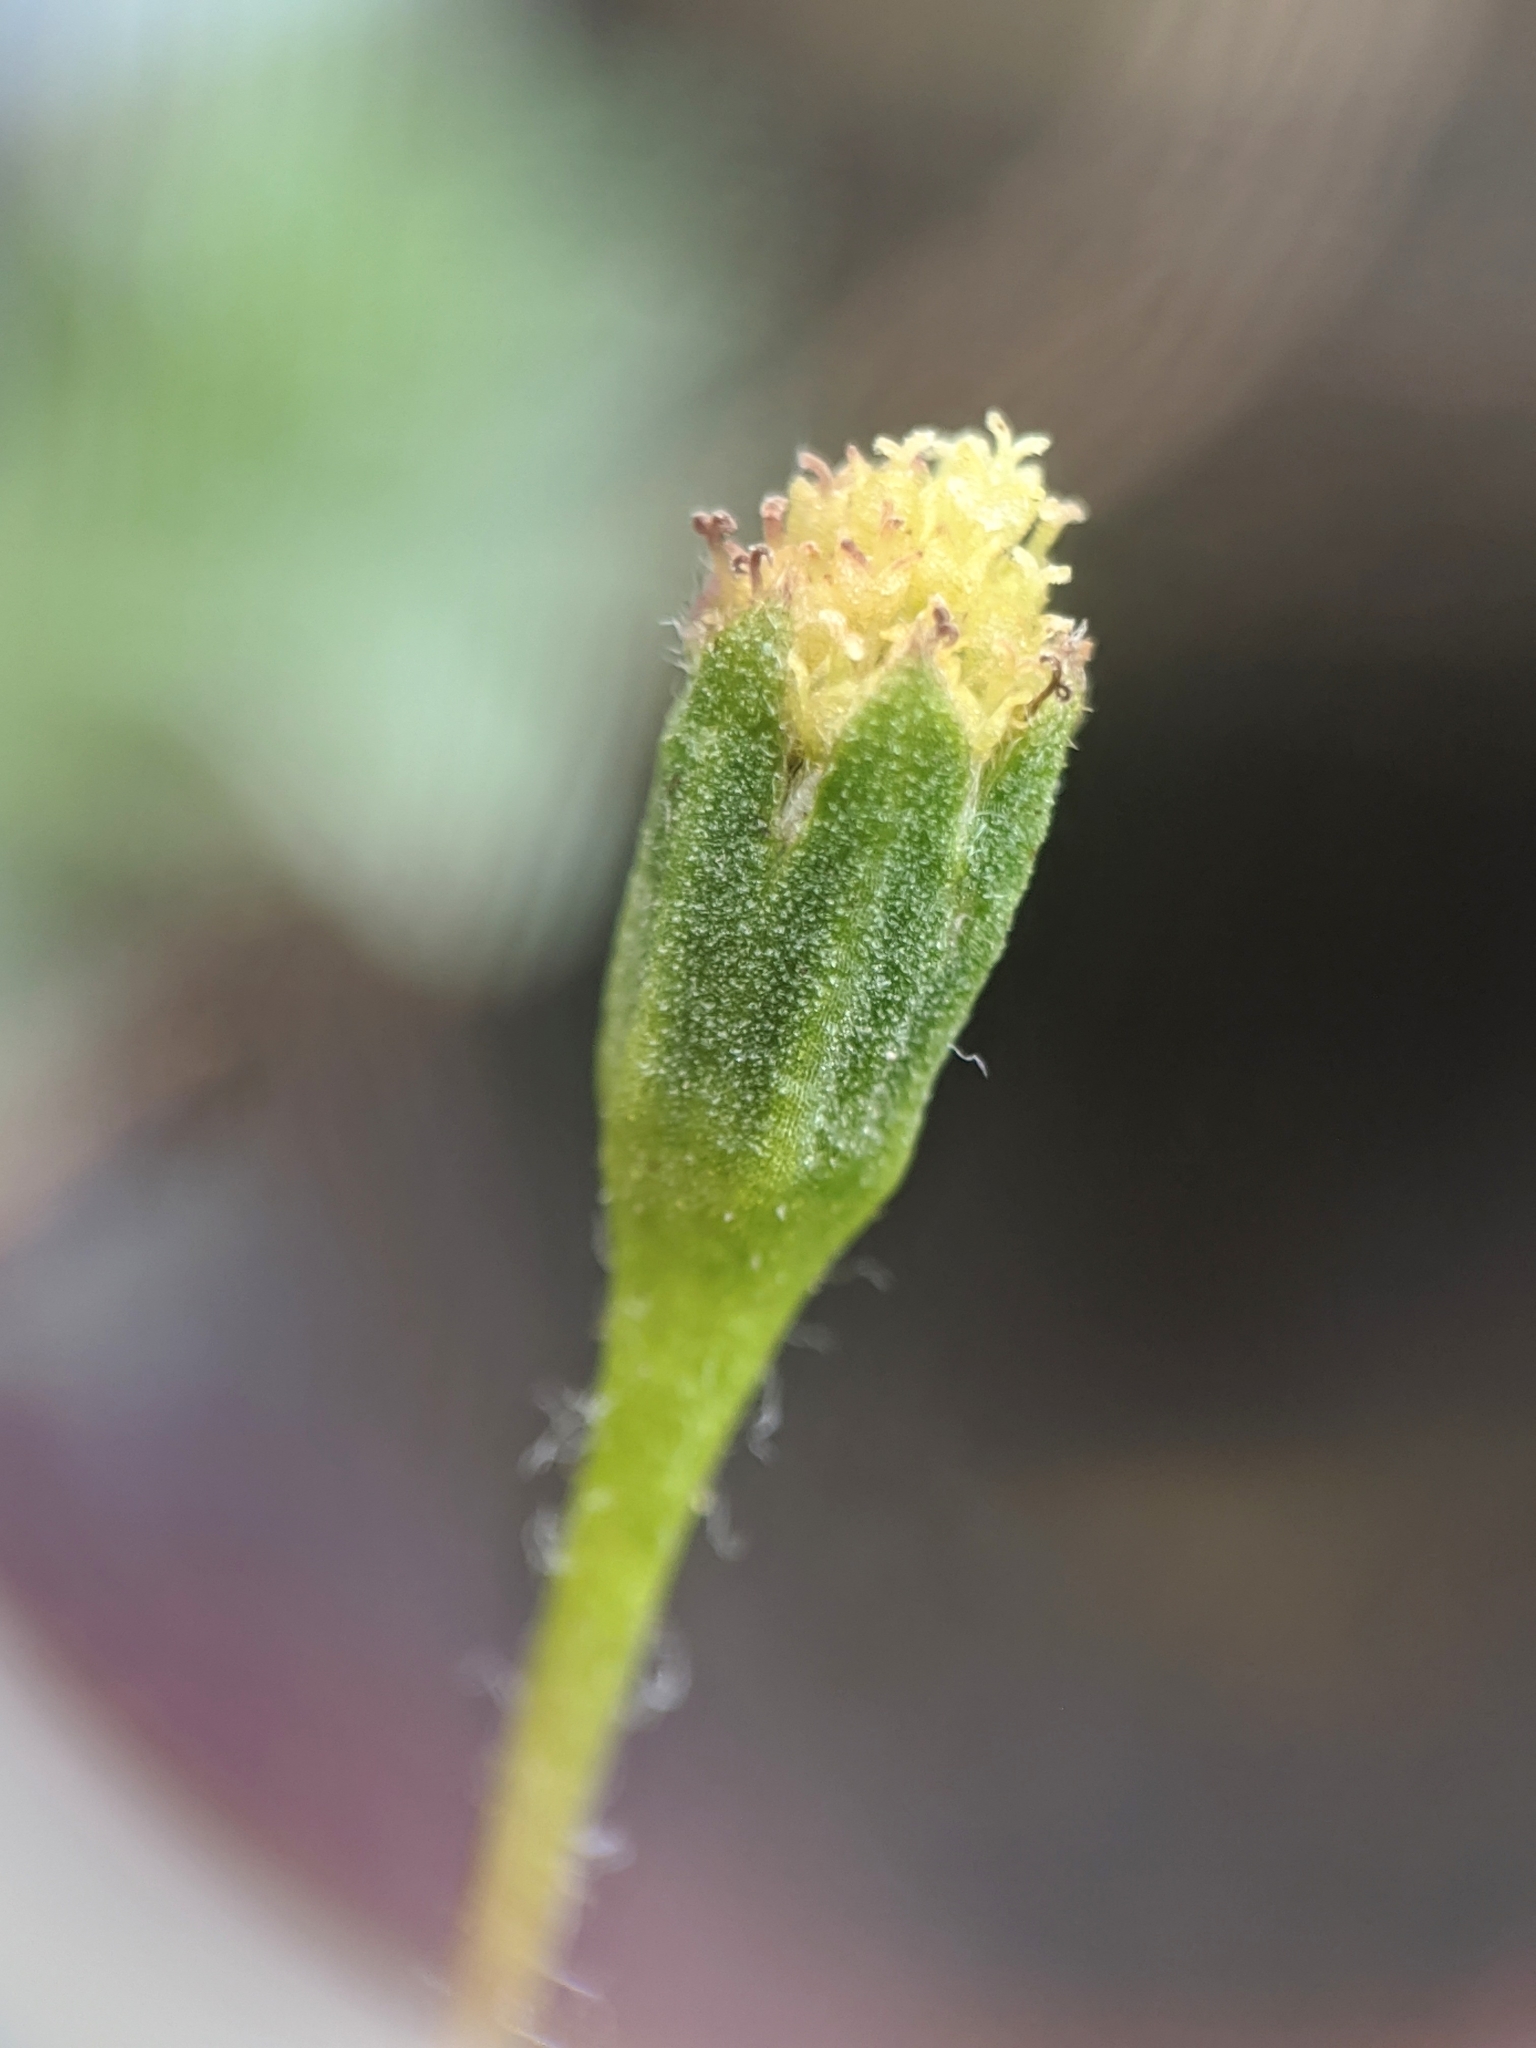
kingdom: Plantae
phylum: Tracheophyta
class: Magnoliopsida
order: Asterales
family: Asteraceae
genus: Lasthenia
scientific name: Lasthenia glaberrima
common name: Smooth goldfields
